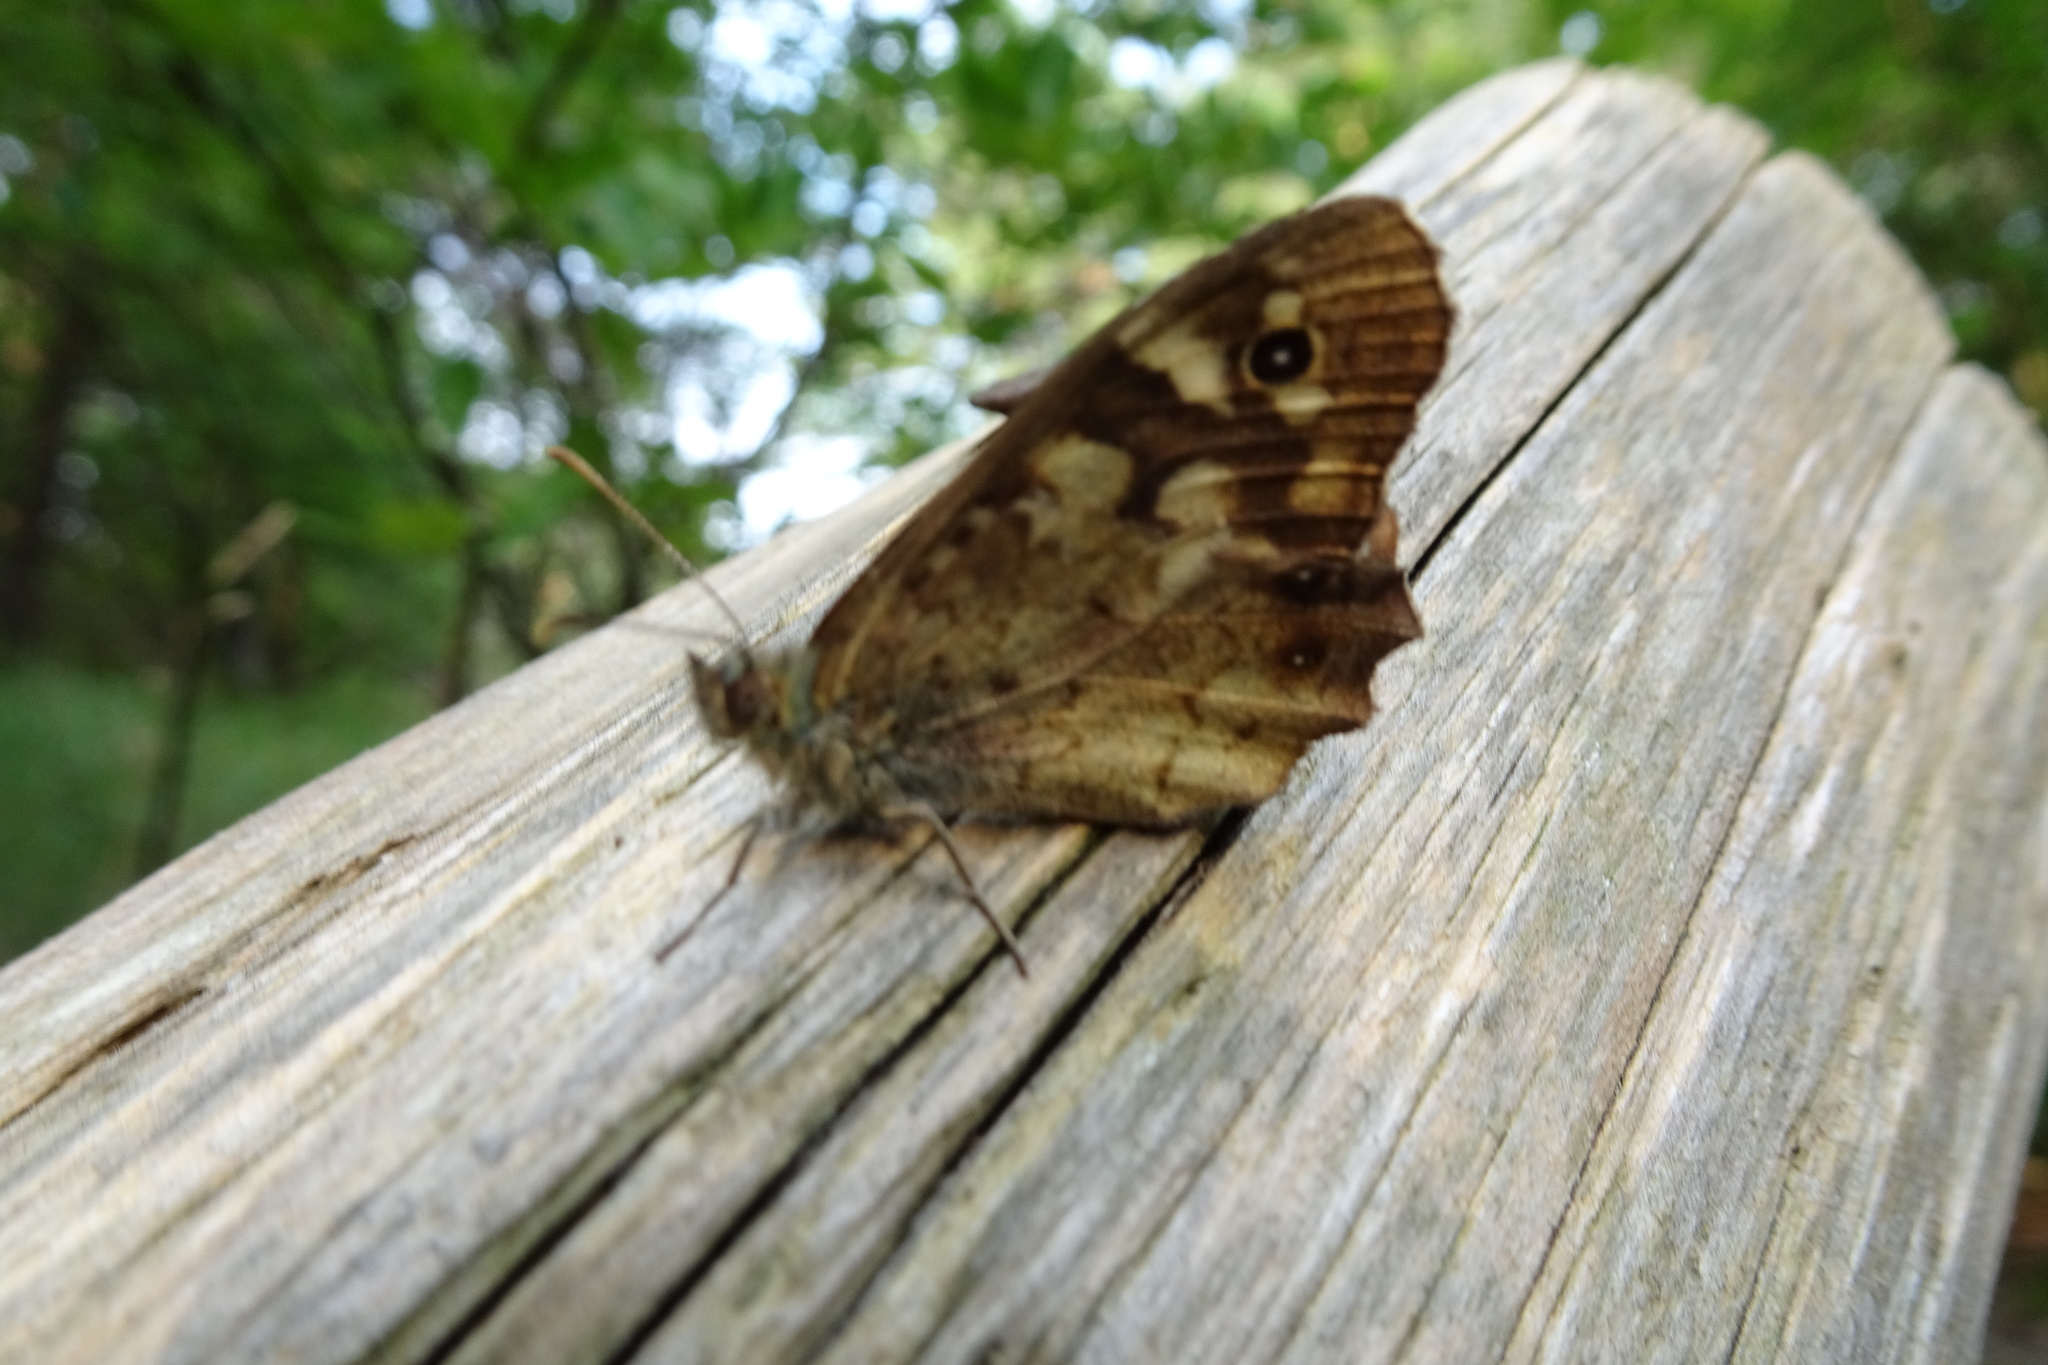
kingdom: Animalia
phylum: Arthropoda
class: Insecta
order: Lepidoptera
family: Nymphalidae
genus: Pararge
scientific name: Pararge aegeria
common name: Speckled wood
